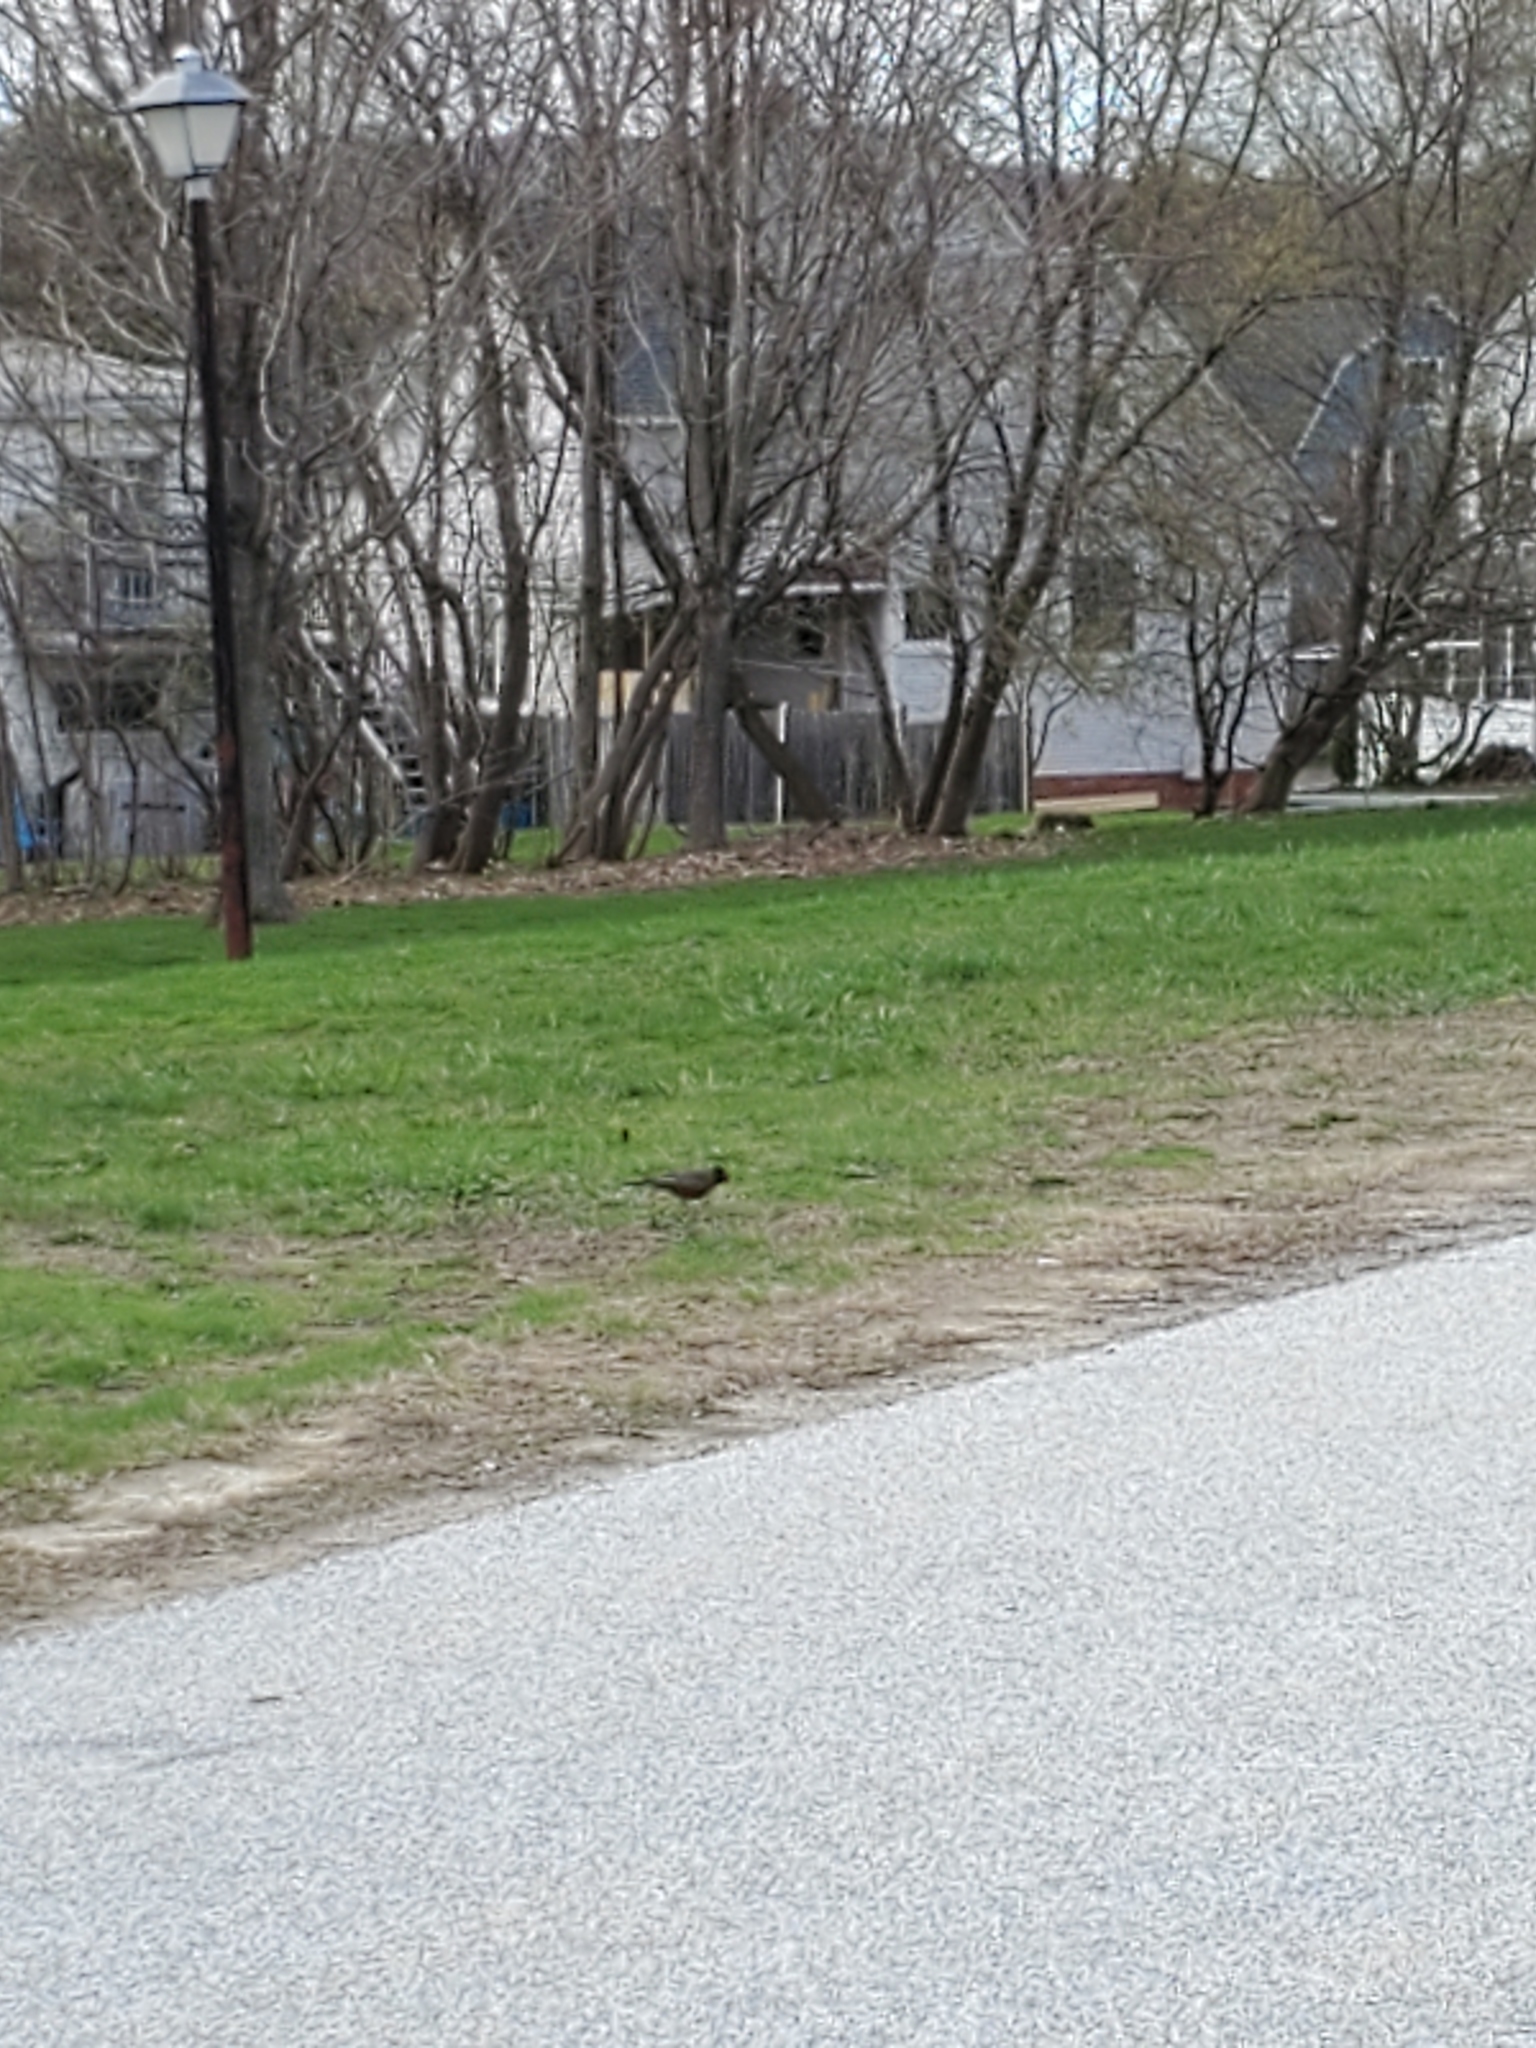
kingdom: Animalia
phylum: Chordata
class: Aves
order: Passeriformes
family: Turdidae
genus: Turdus
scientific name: Turdus migratorius
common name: American robin
